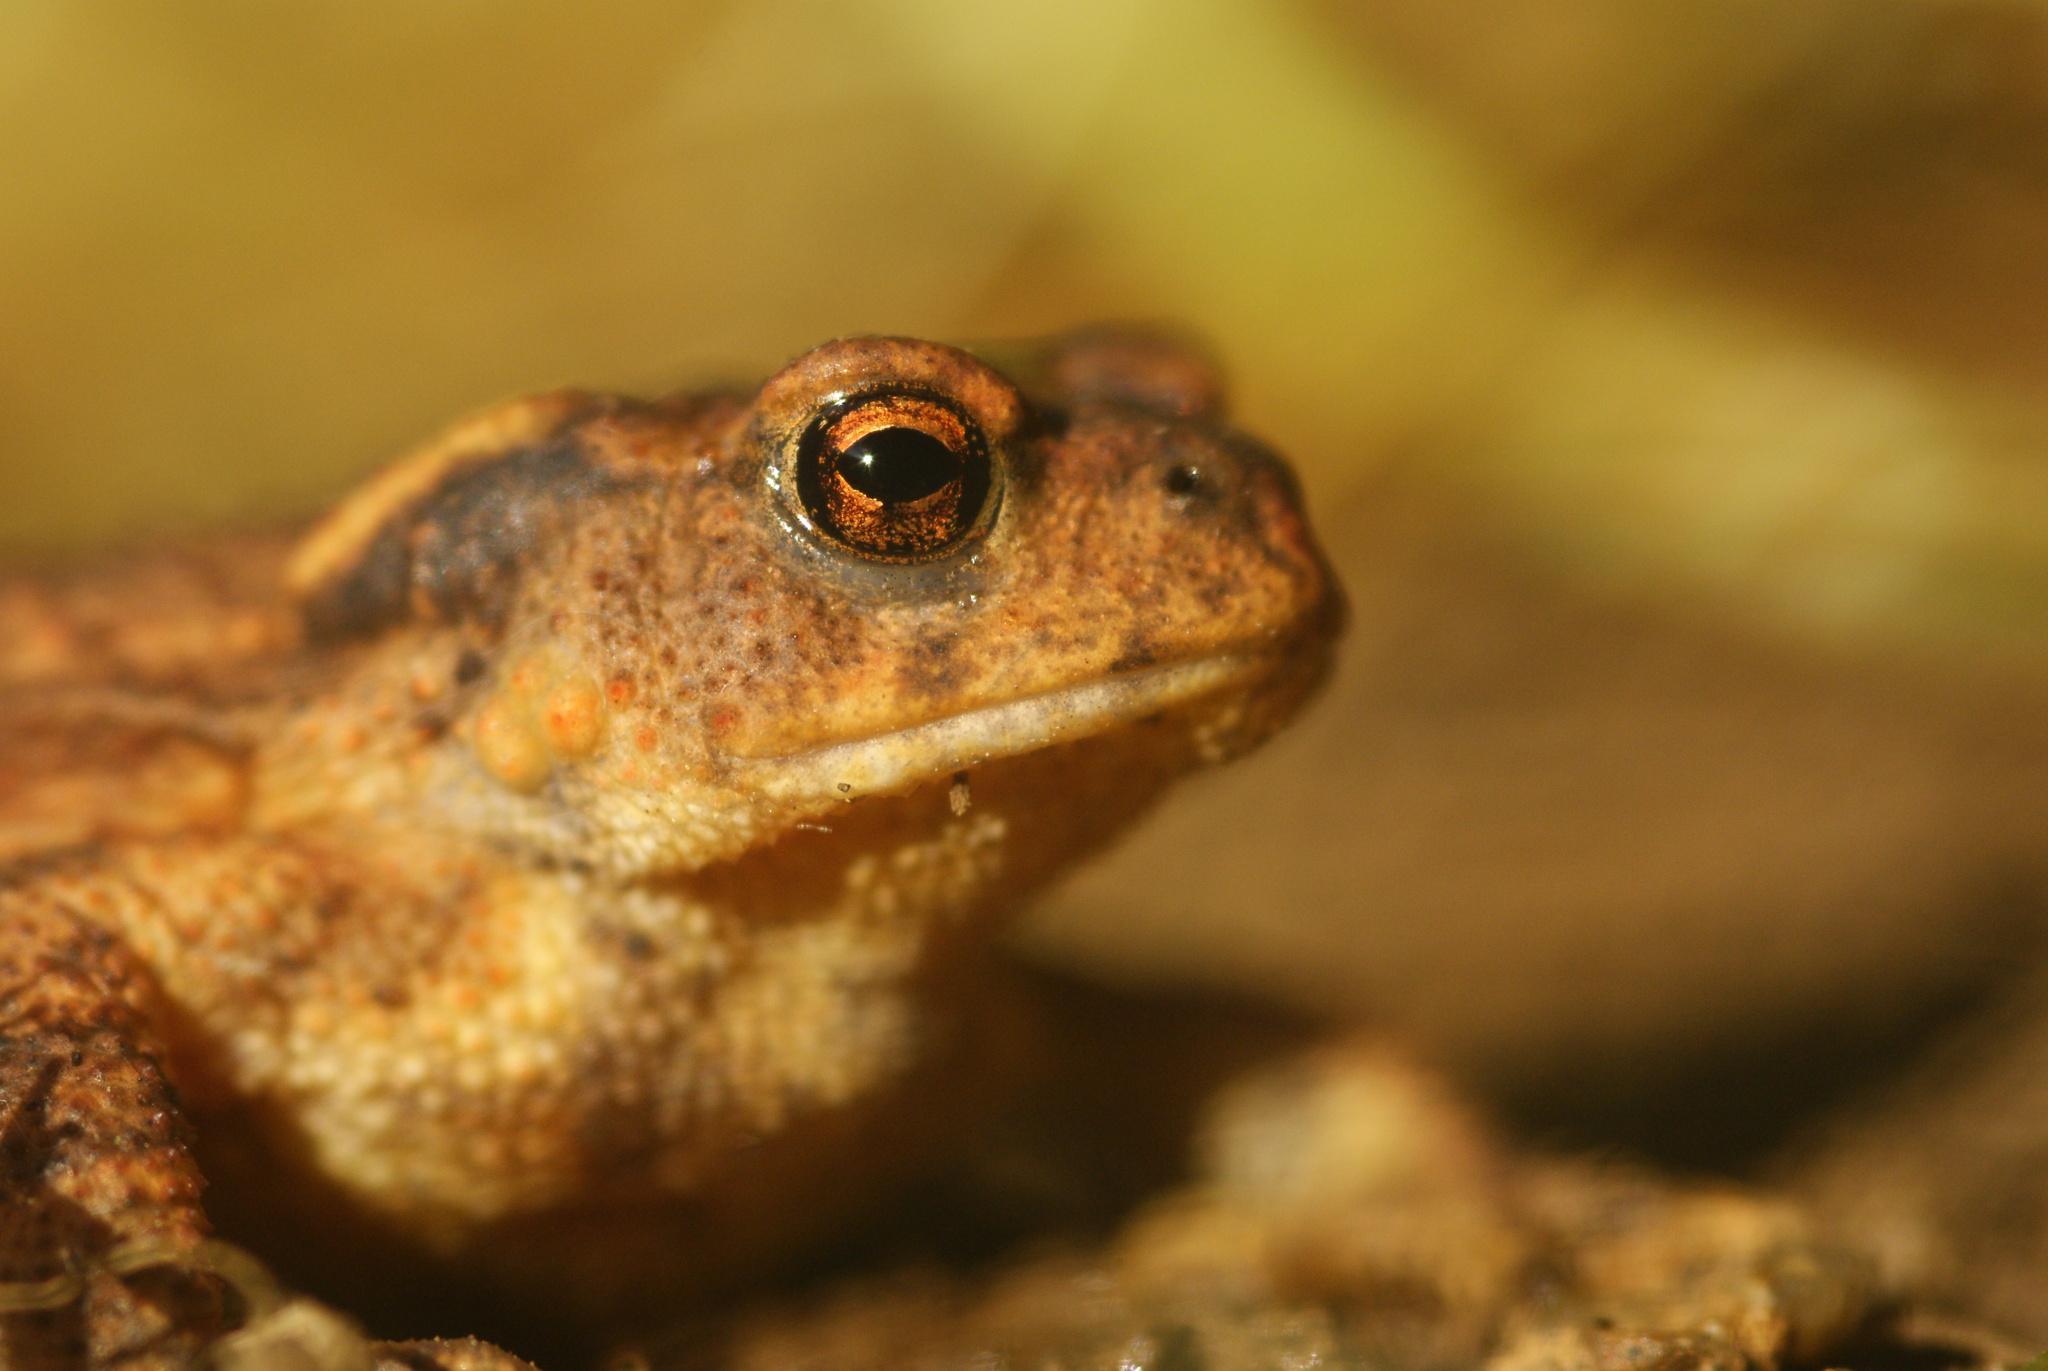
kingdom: Animalia
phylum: Chordata
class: Amphibia
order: Anura
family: Bufonidae
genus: Bufo
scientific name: Bufo spinosus
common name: Western common toad
